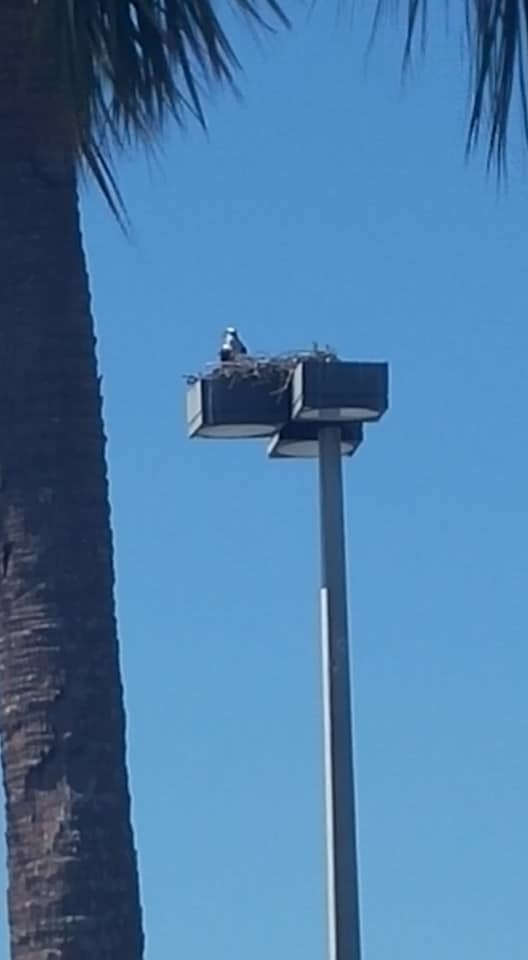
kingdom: Animalia
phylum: Chordata
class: Aves
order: Accipitriformes
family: Pandionidae
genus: Pandion
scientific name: Pandion haliaetus
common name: Osprey
